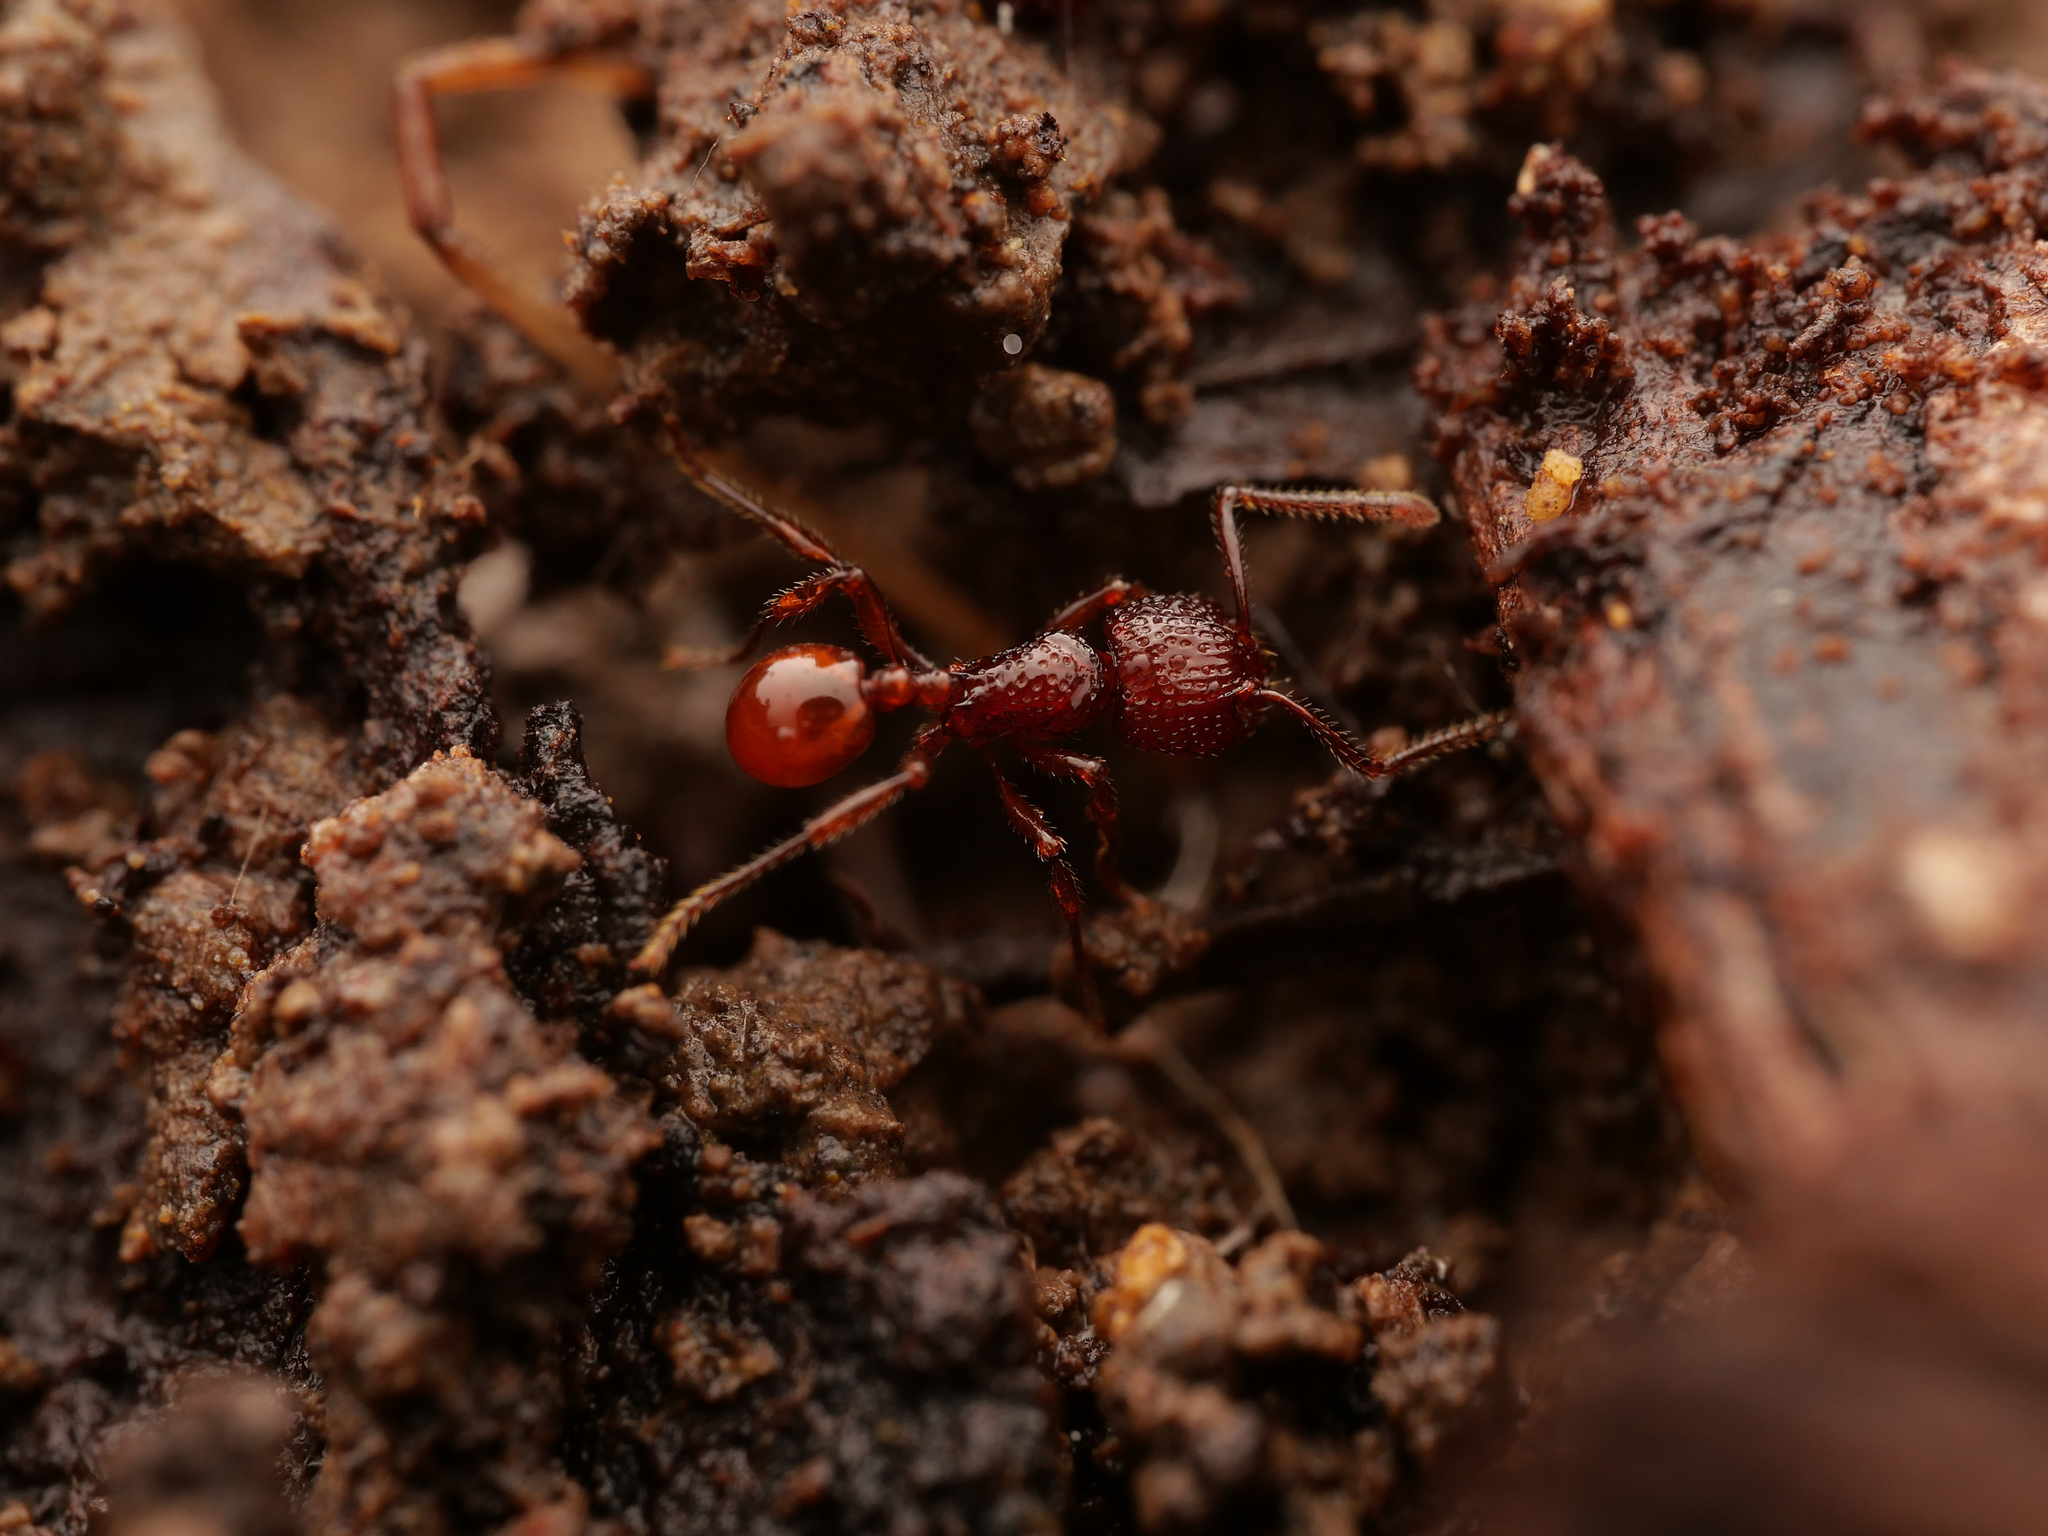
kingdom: Animalia
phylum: Arthropoda
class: Insecta
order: Hymenoptera
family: Formicidae
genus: Pristomyrmex
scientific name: Pristomyrmex picteti
